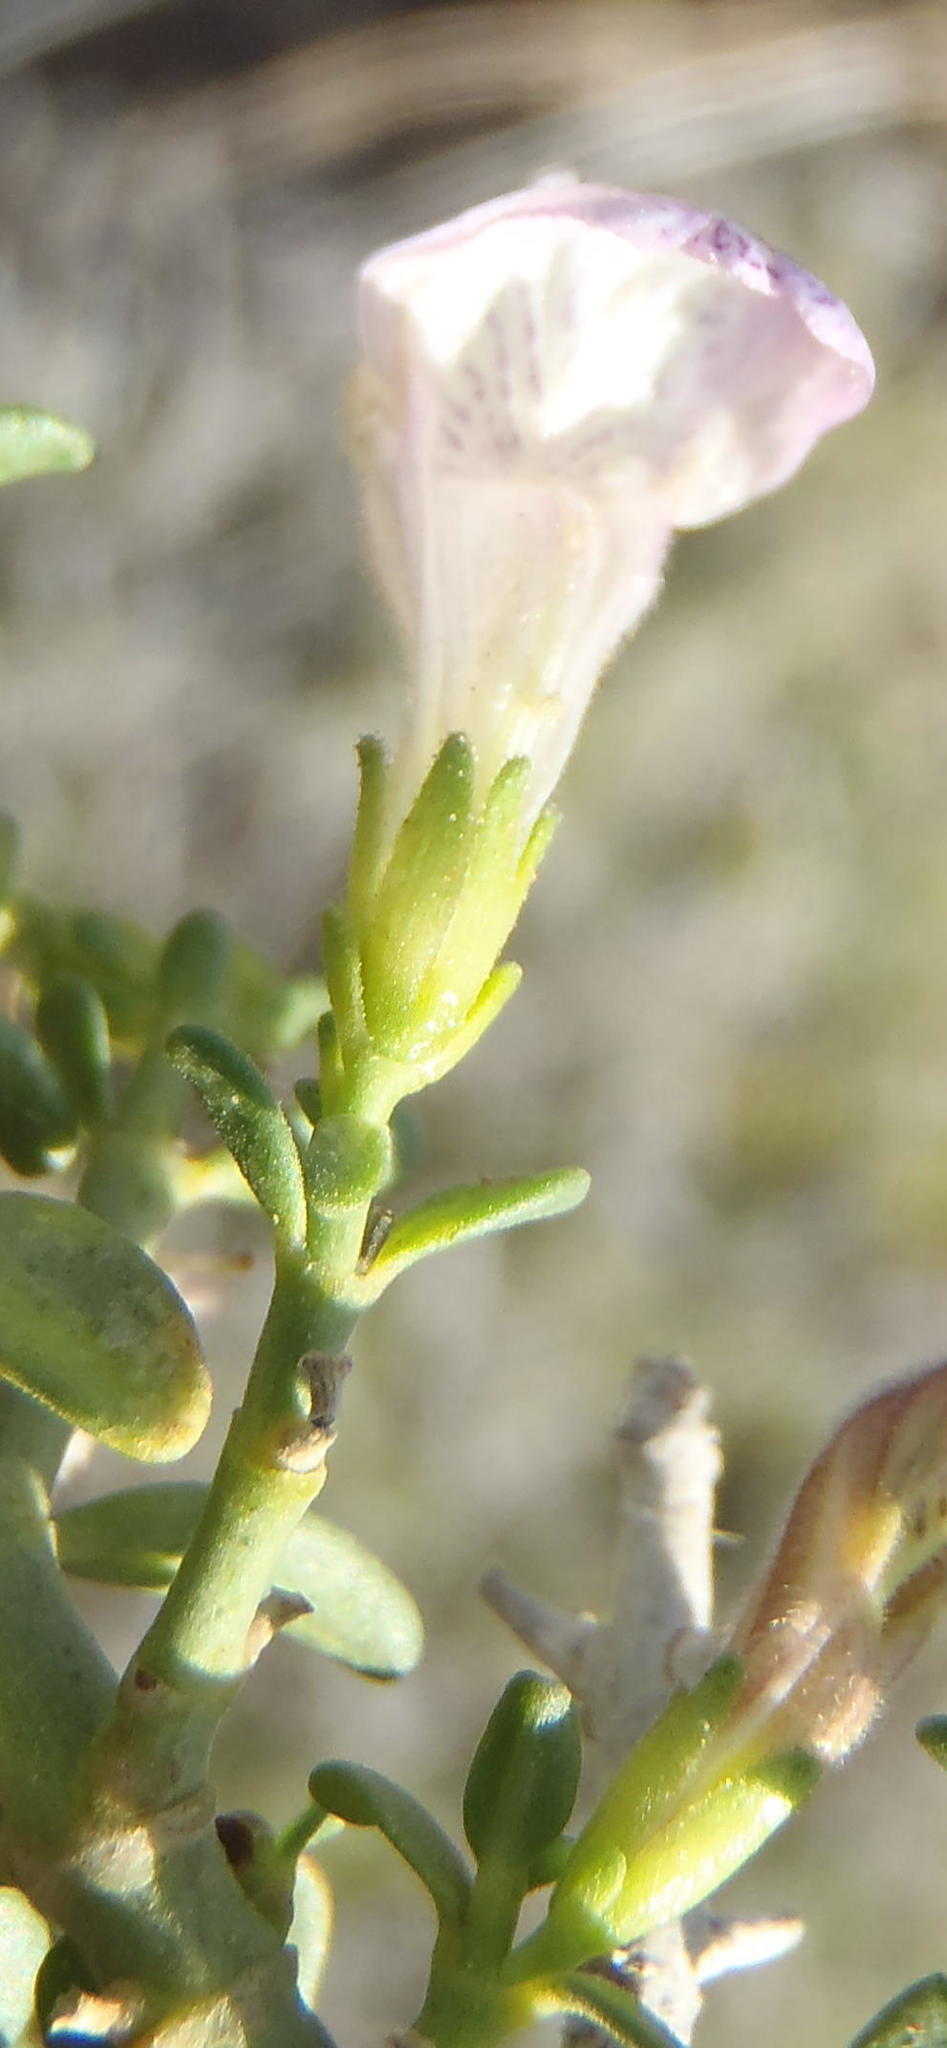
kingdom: Plantae
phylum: Tracheophyta
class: Magnoliopsida
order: Lamiales
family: Acanthaceae
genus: Pogonospermum
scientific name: Pogonospermum
